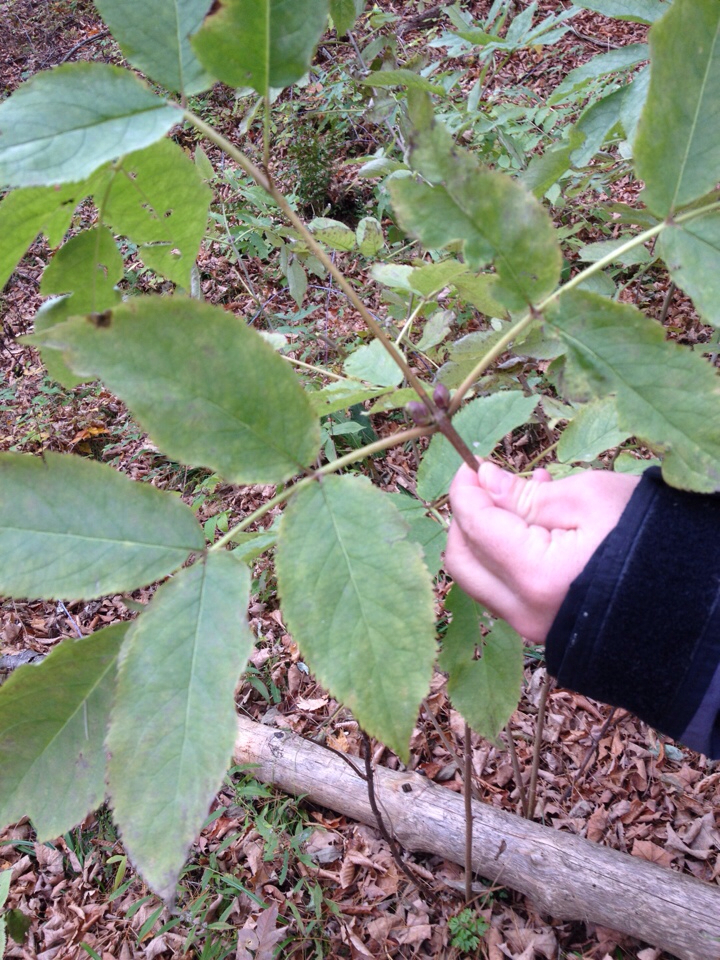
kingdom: Plantae
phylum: Tracheophyta
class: Magnoliopsida
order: Dipsacales
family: Viburnaceae
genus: Sambucus
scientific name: Sambucus racemosa
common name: Red-berried elder
